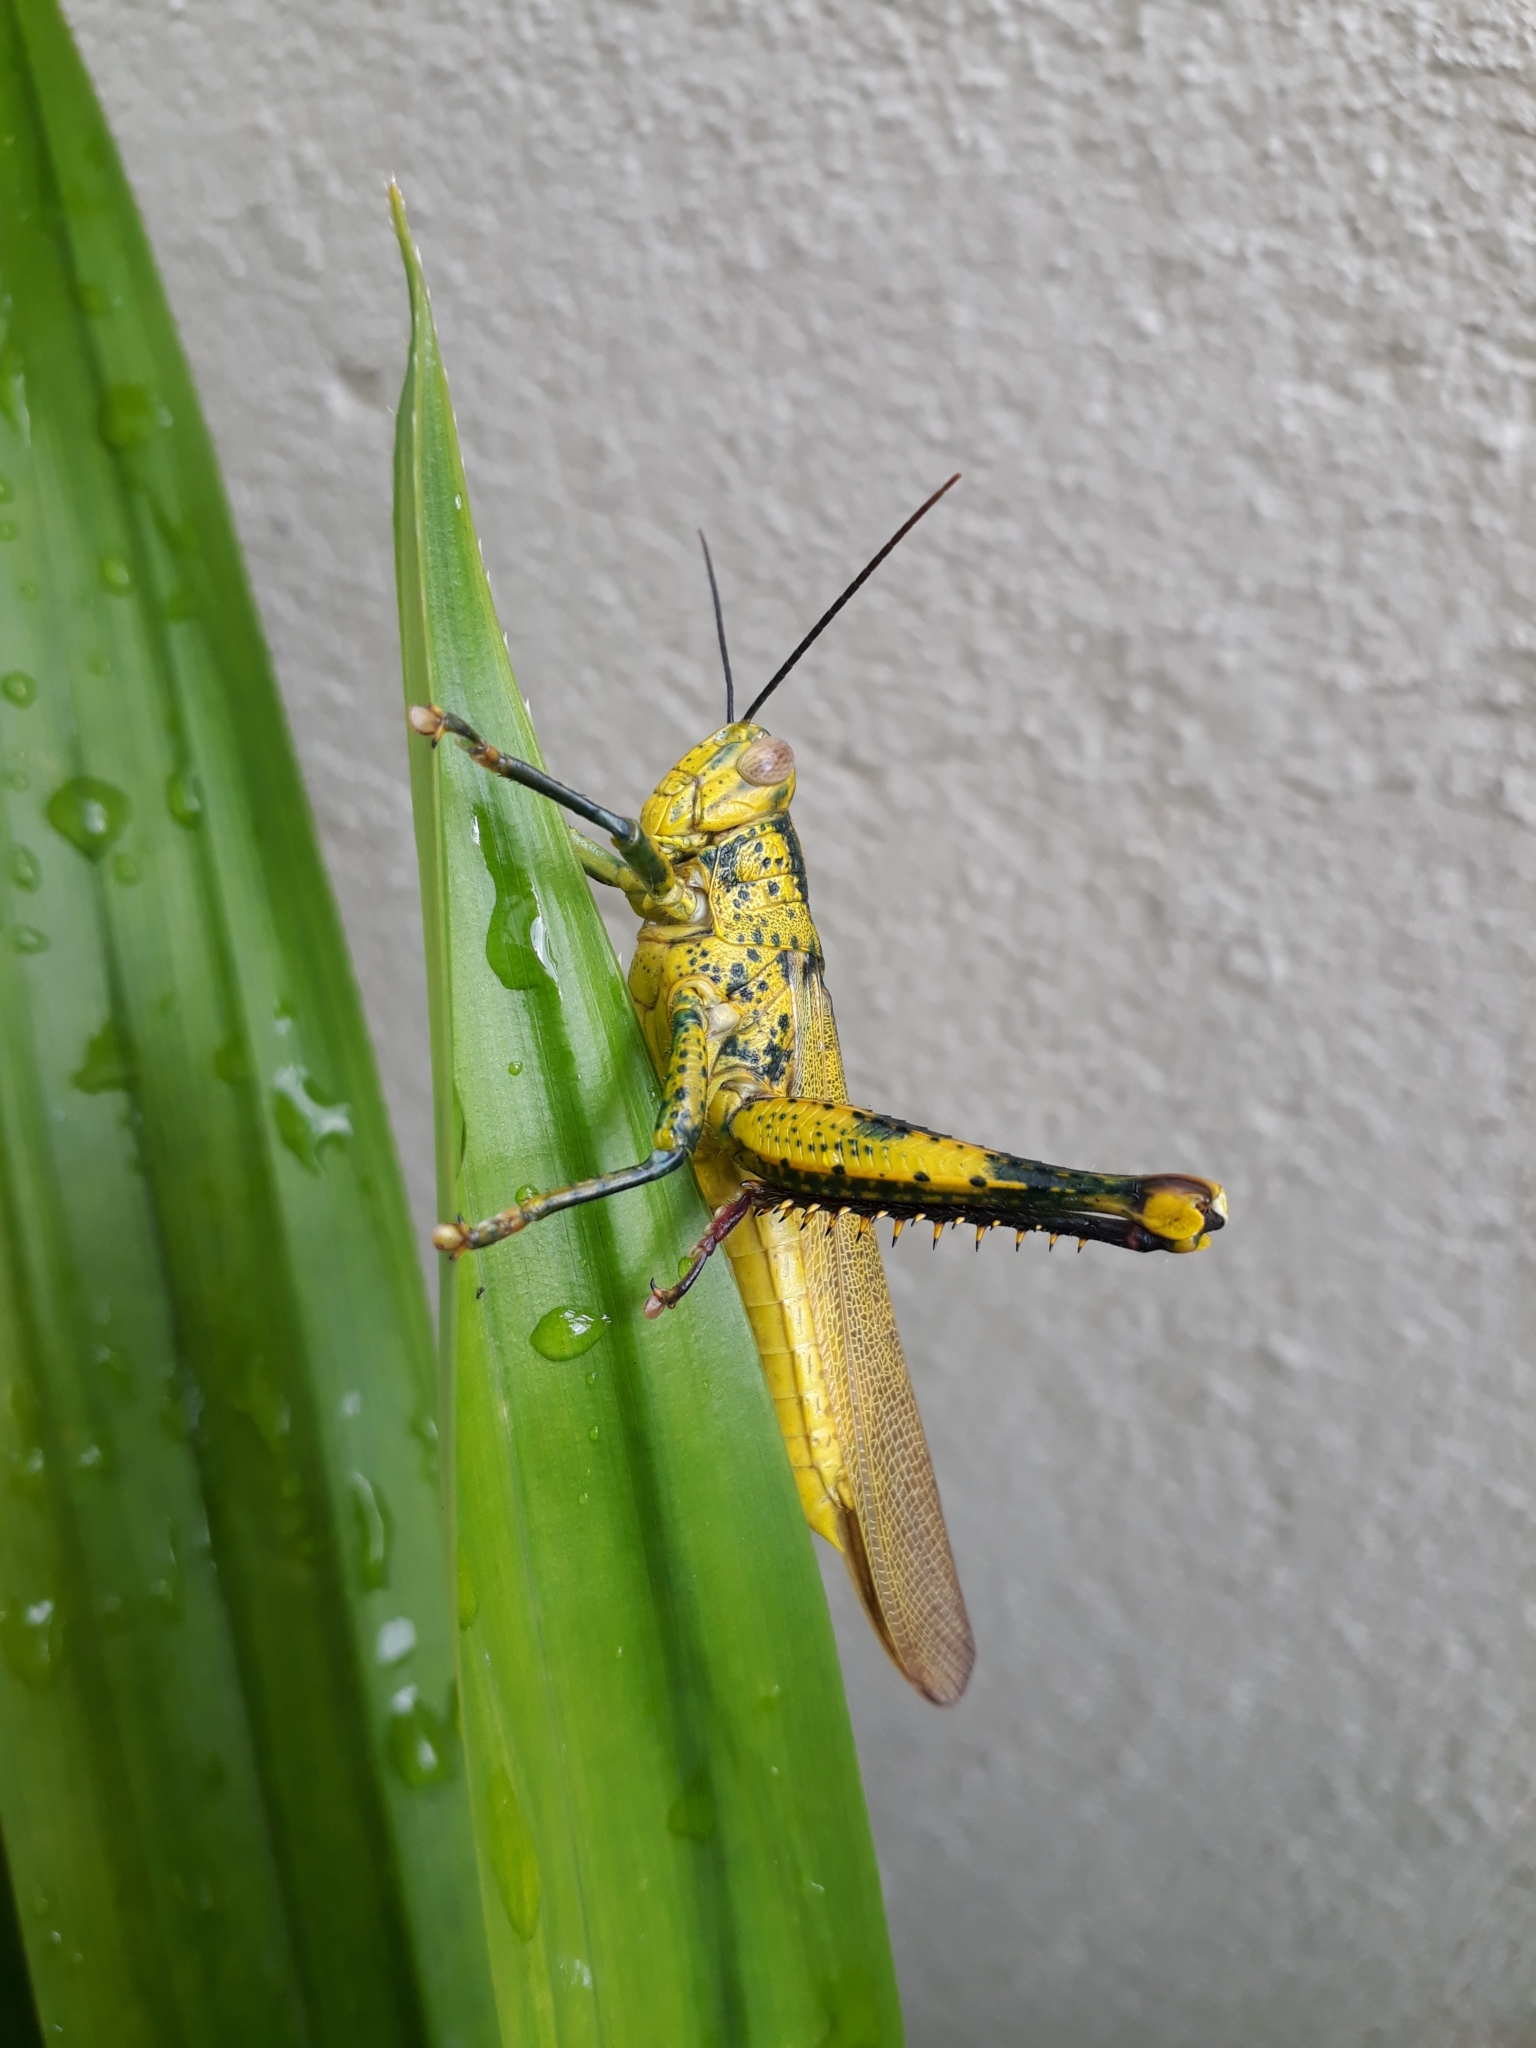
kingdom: Animalia
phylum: Arthropoda
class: Insecta
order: Orthoptera
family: Acrididae
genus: Valanga
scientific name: Valanga nigricornis
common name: Javanese bird grasshopper
